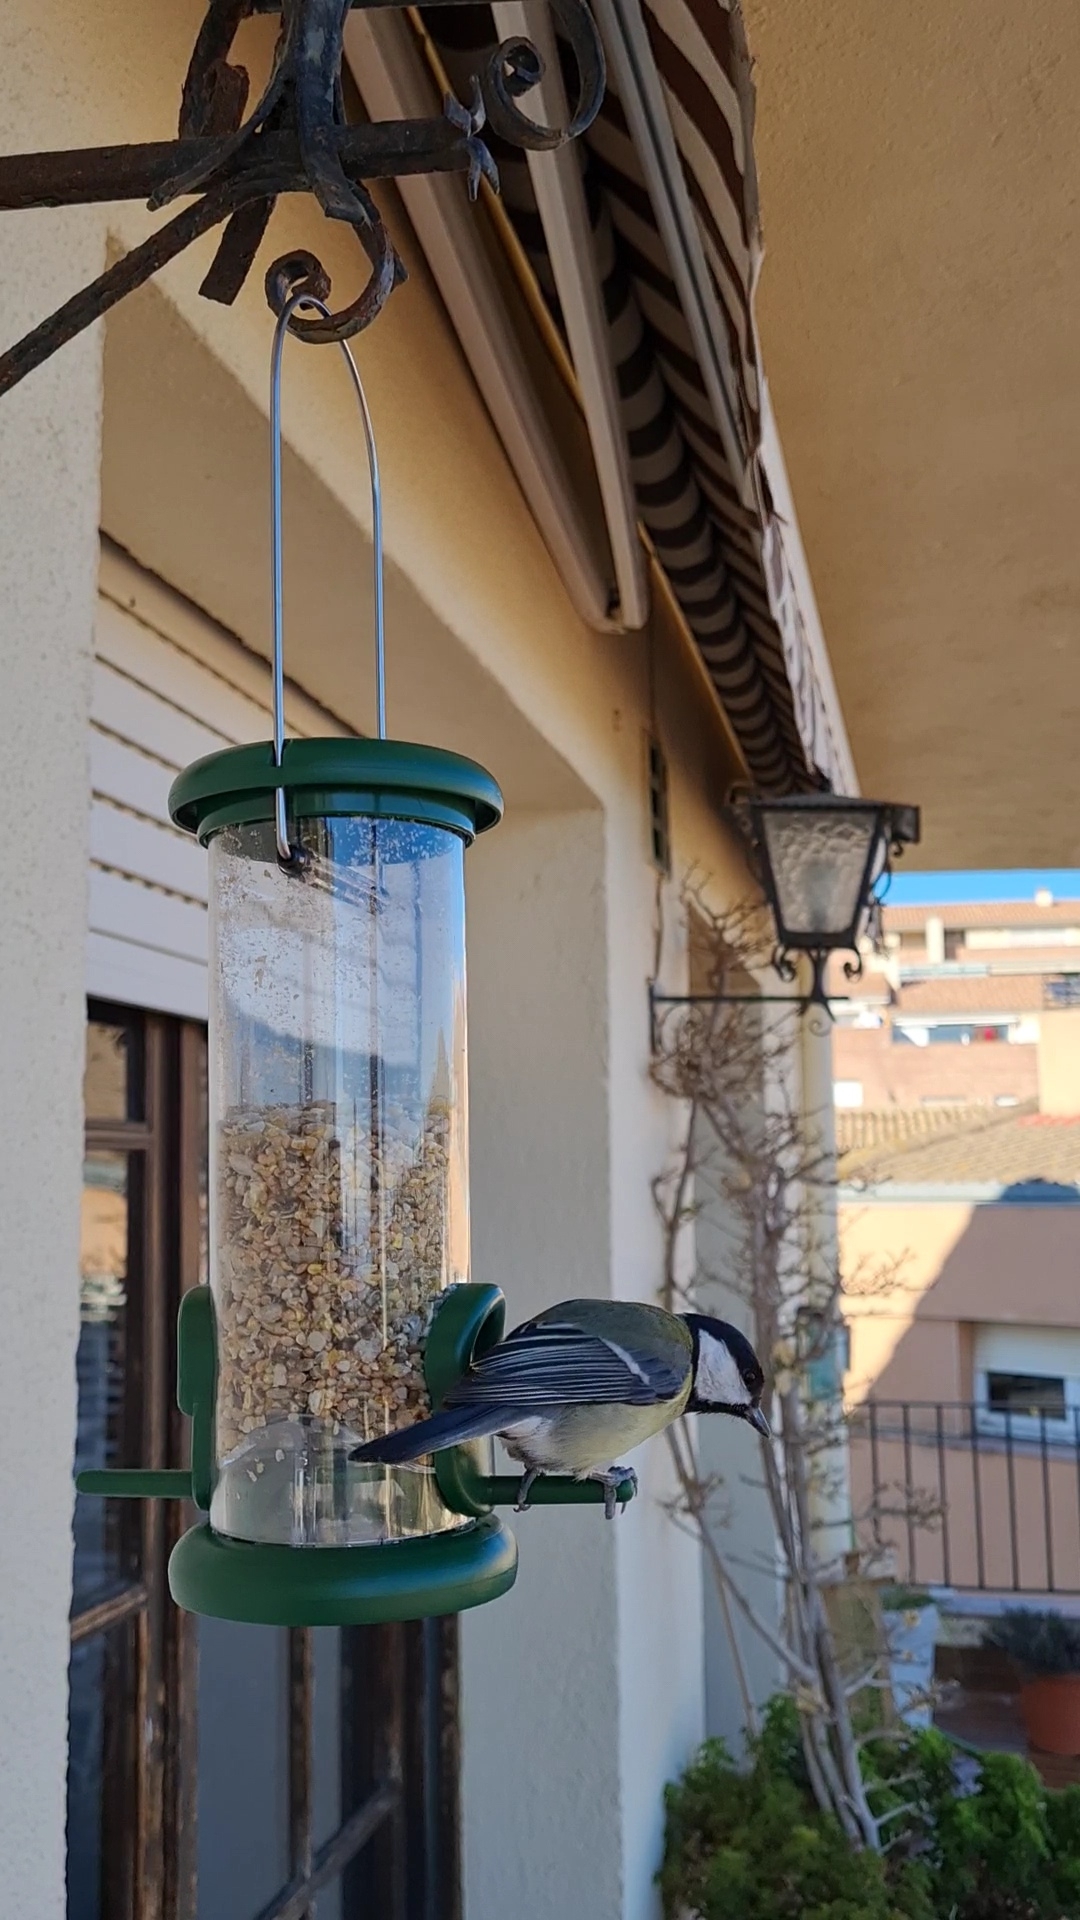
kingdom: Animalia
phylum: Chordata
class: Aves
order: Passeriformes
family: Paridae
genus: Parus
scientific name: Parus major
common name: Great tit
